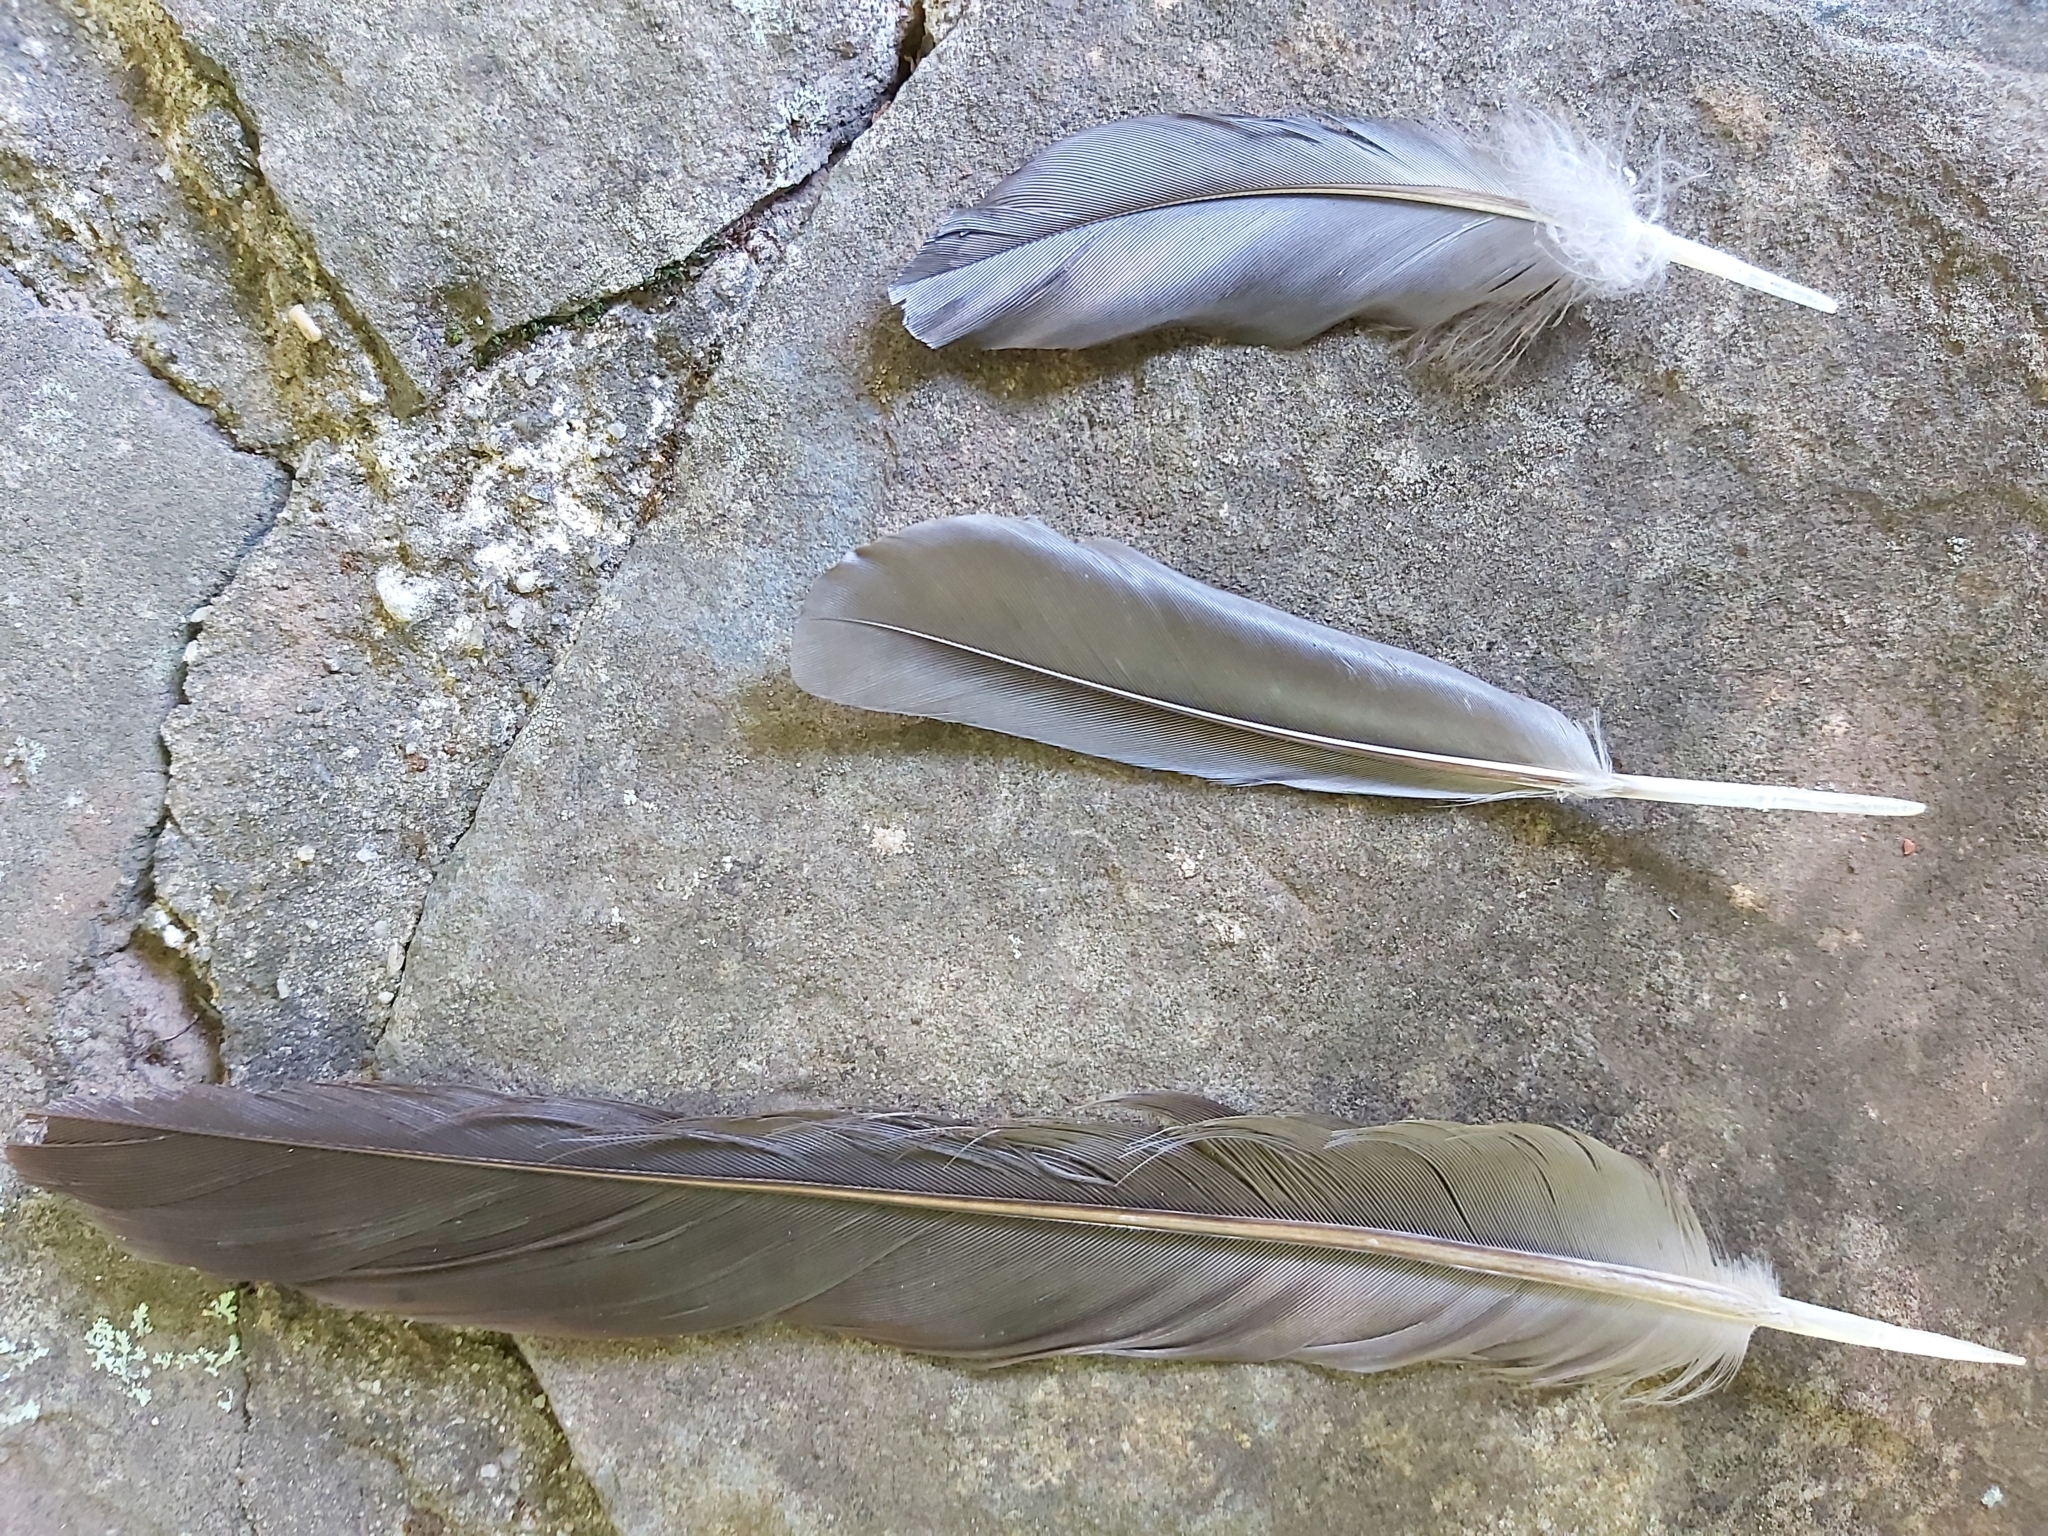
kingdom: Animalia
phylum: Chordata
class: Aves
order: Psittaciformes
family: Psittacidae
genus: Alisterus
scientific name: Alisterus scapularis
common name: Australian king parrot
